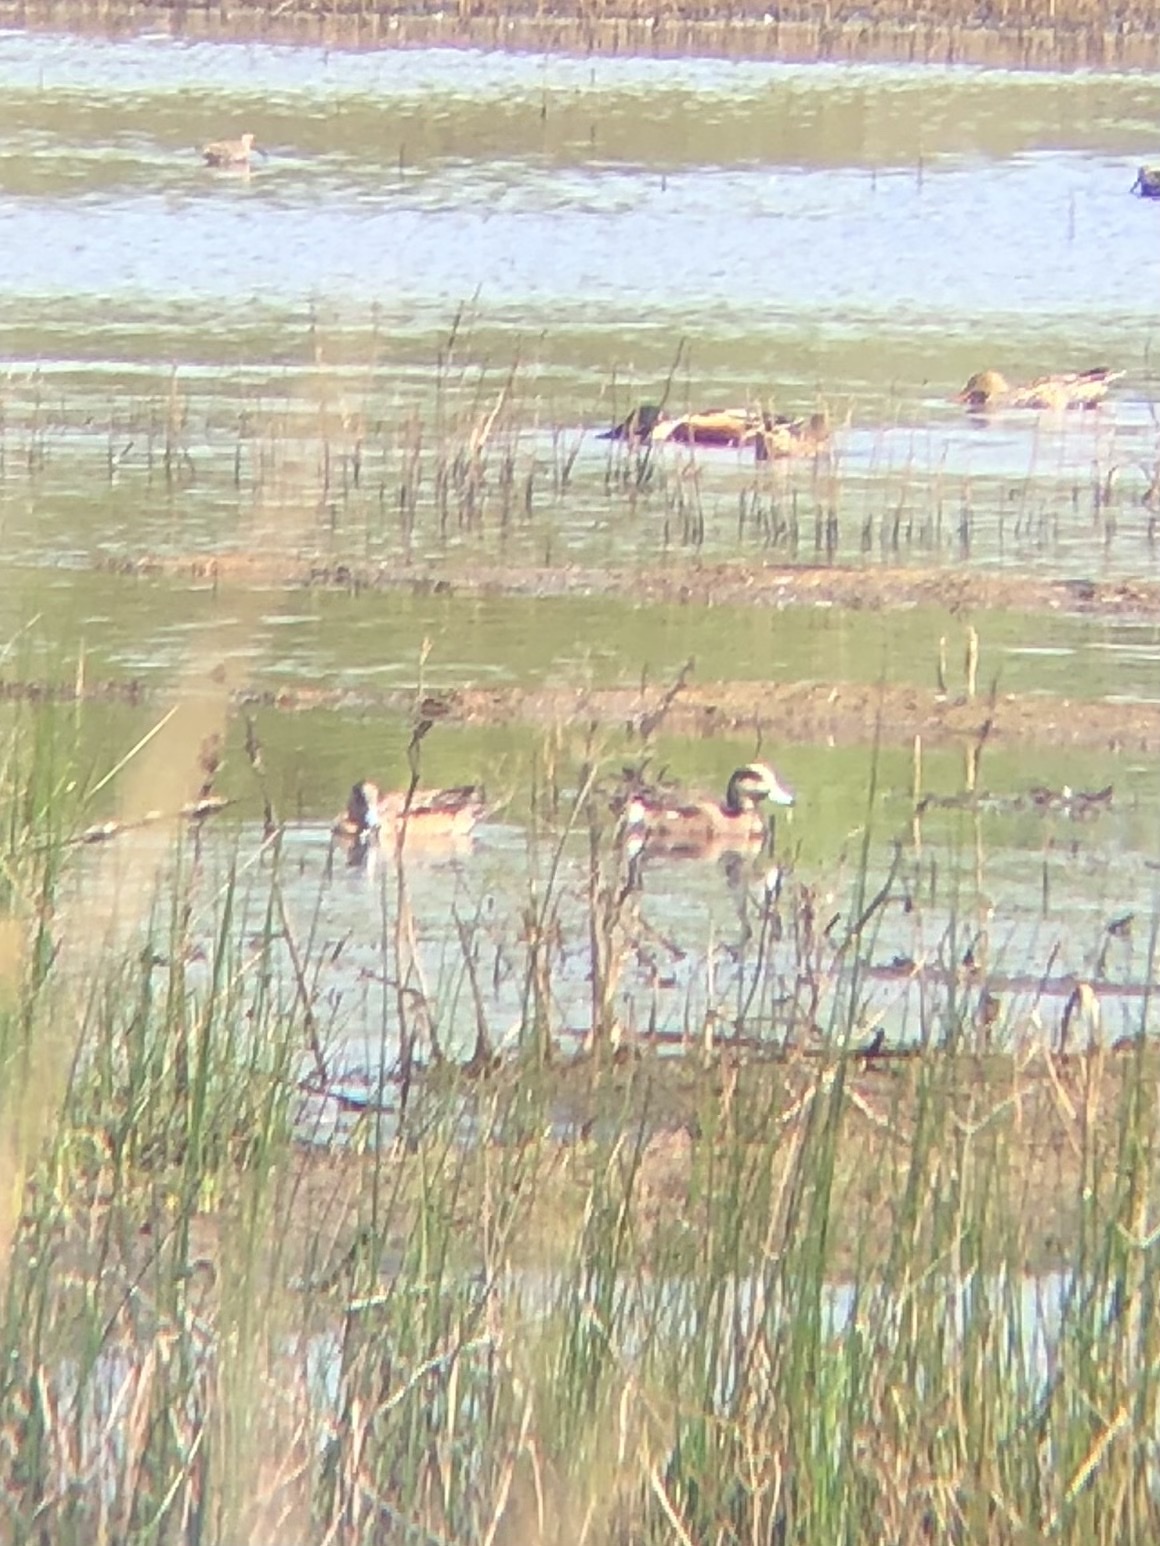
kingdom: Animalia
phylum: Chordata
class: Aves
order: Anseriformes
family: Anatidae
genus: Mareca
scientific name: Mareca americana
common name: American wigeon
